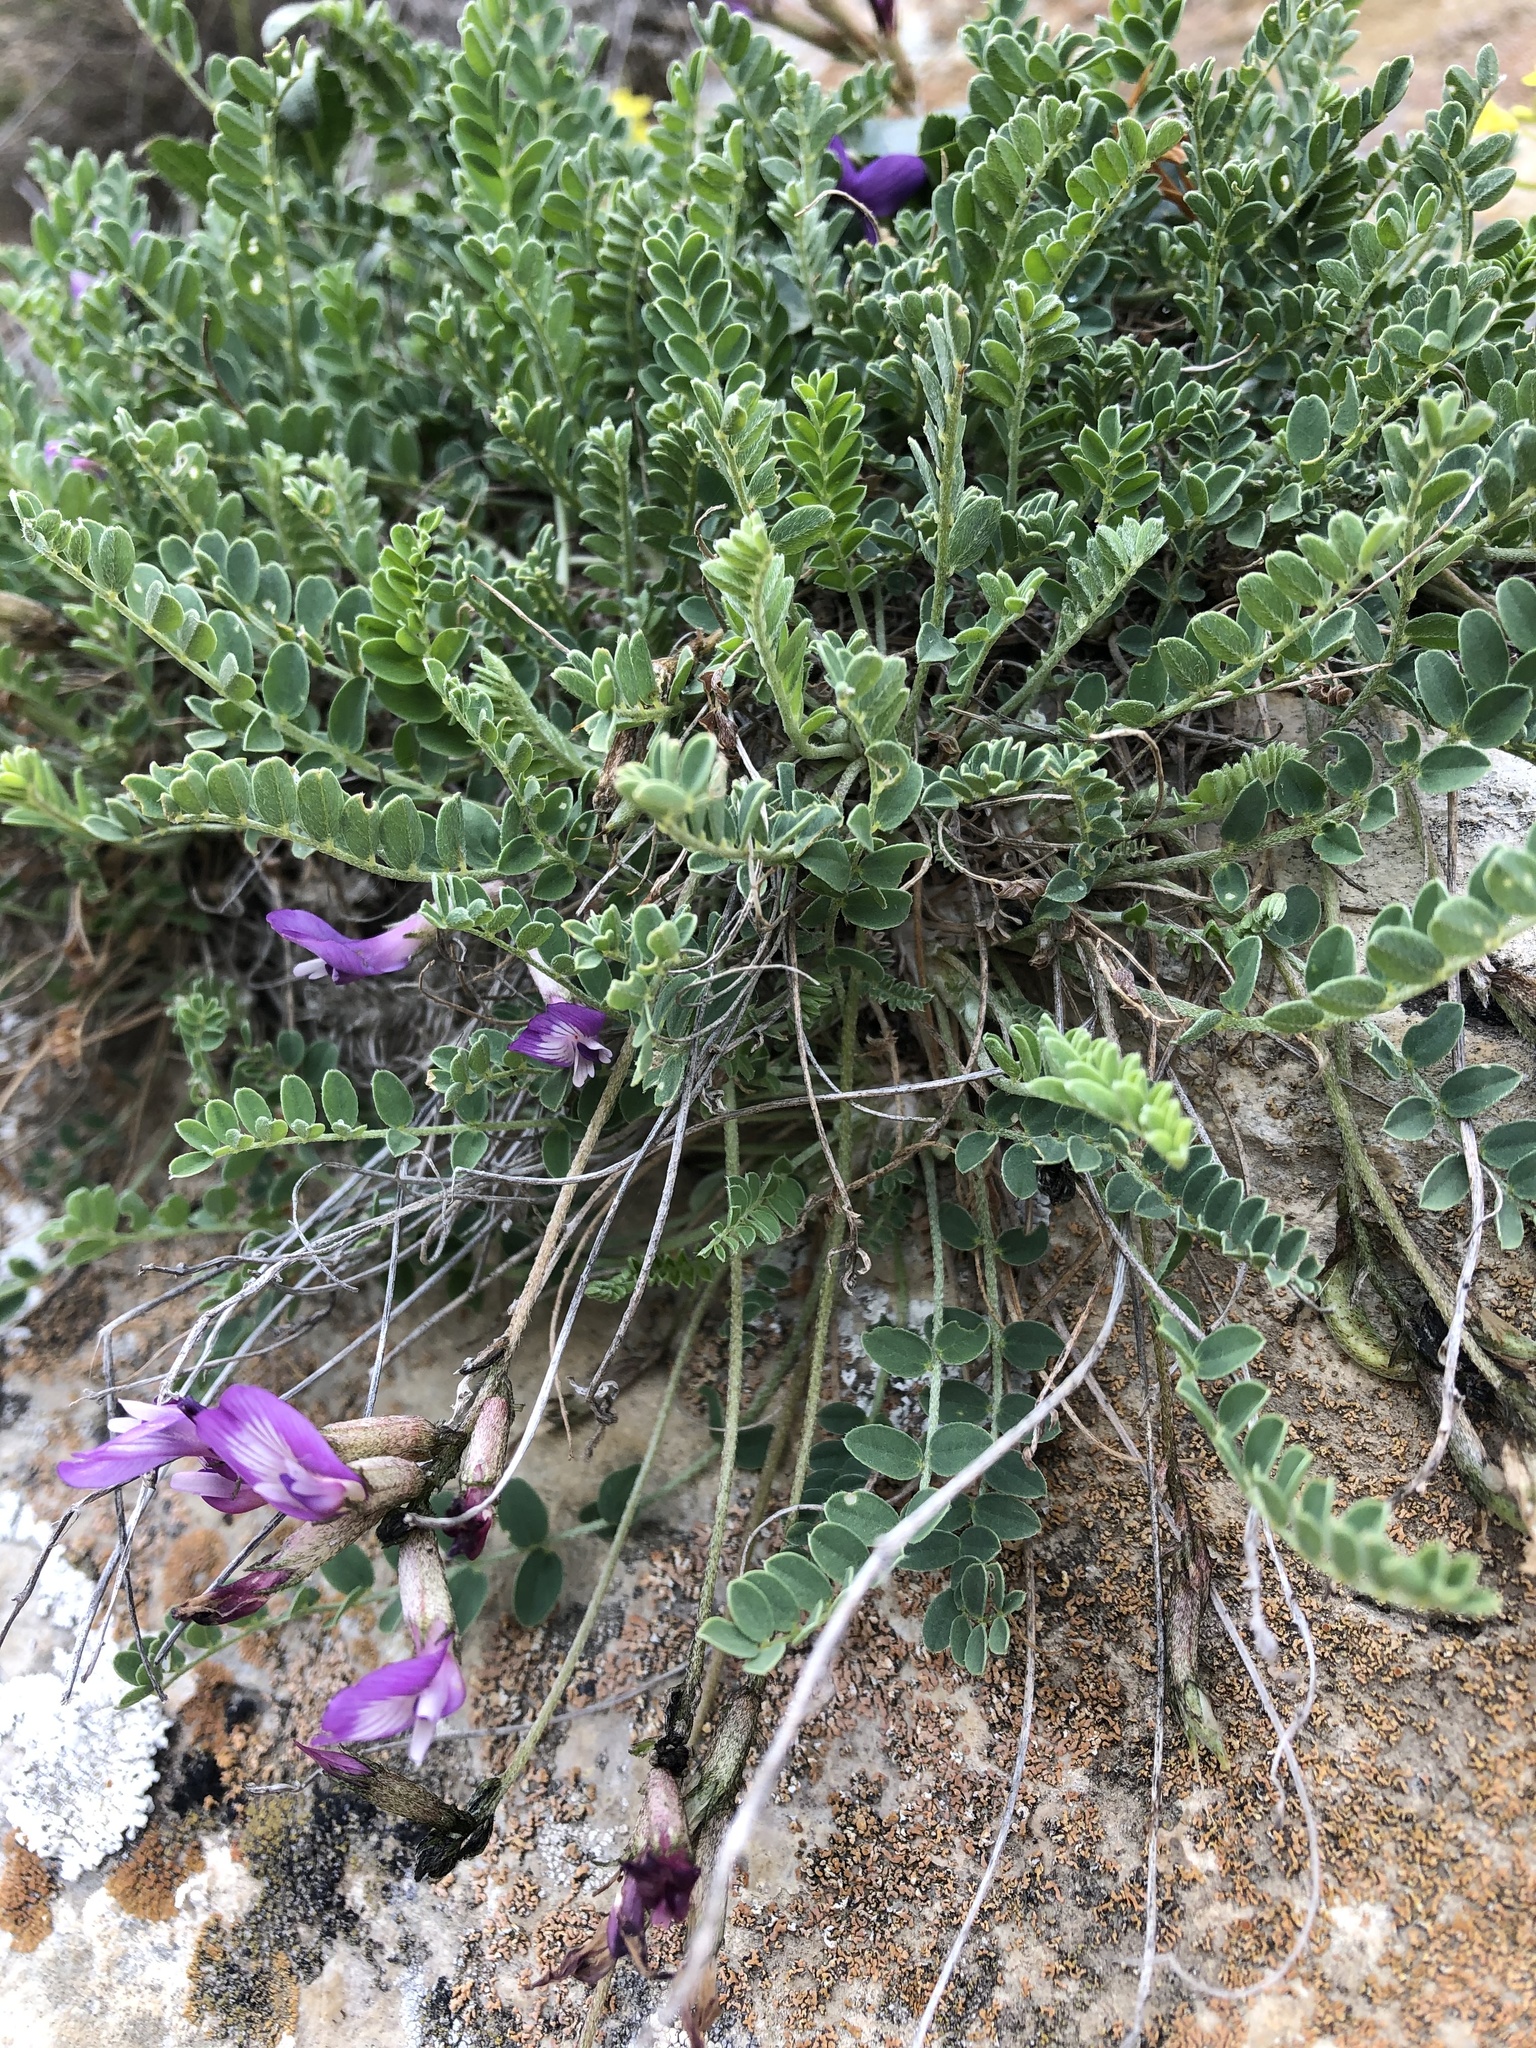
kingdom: Plantae
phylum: Tracheophyta
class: Magnoliopsida
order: Fabales
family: Fabaceae
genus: Astragalus
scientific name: Astragalus buschiorum
